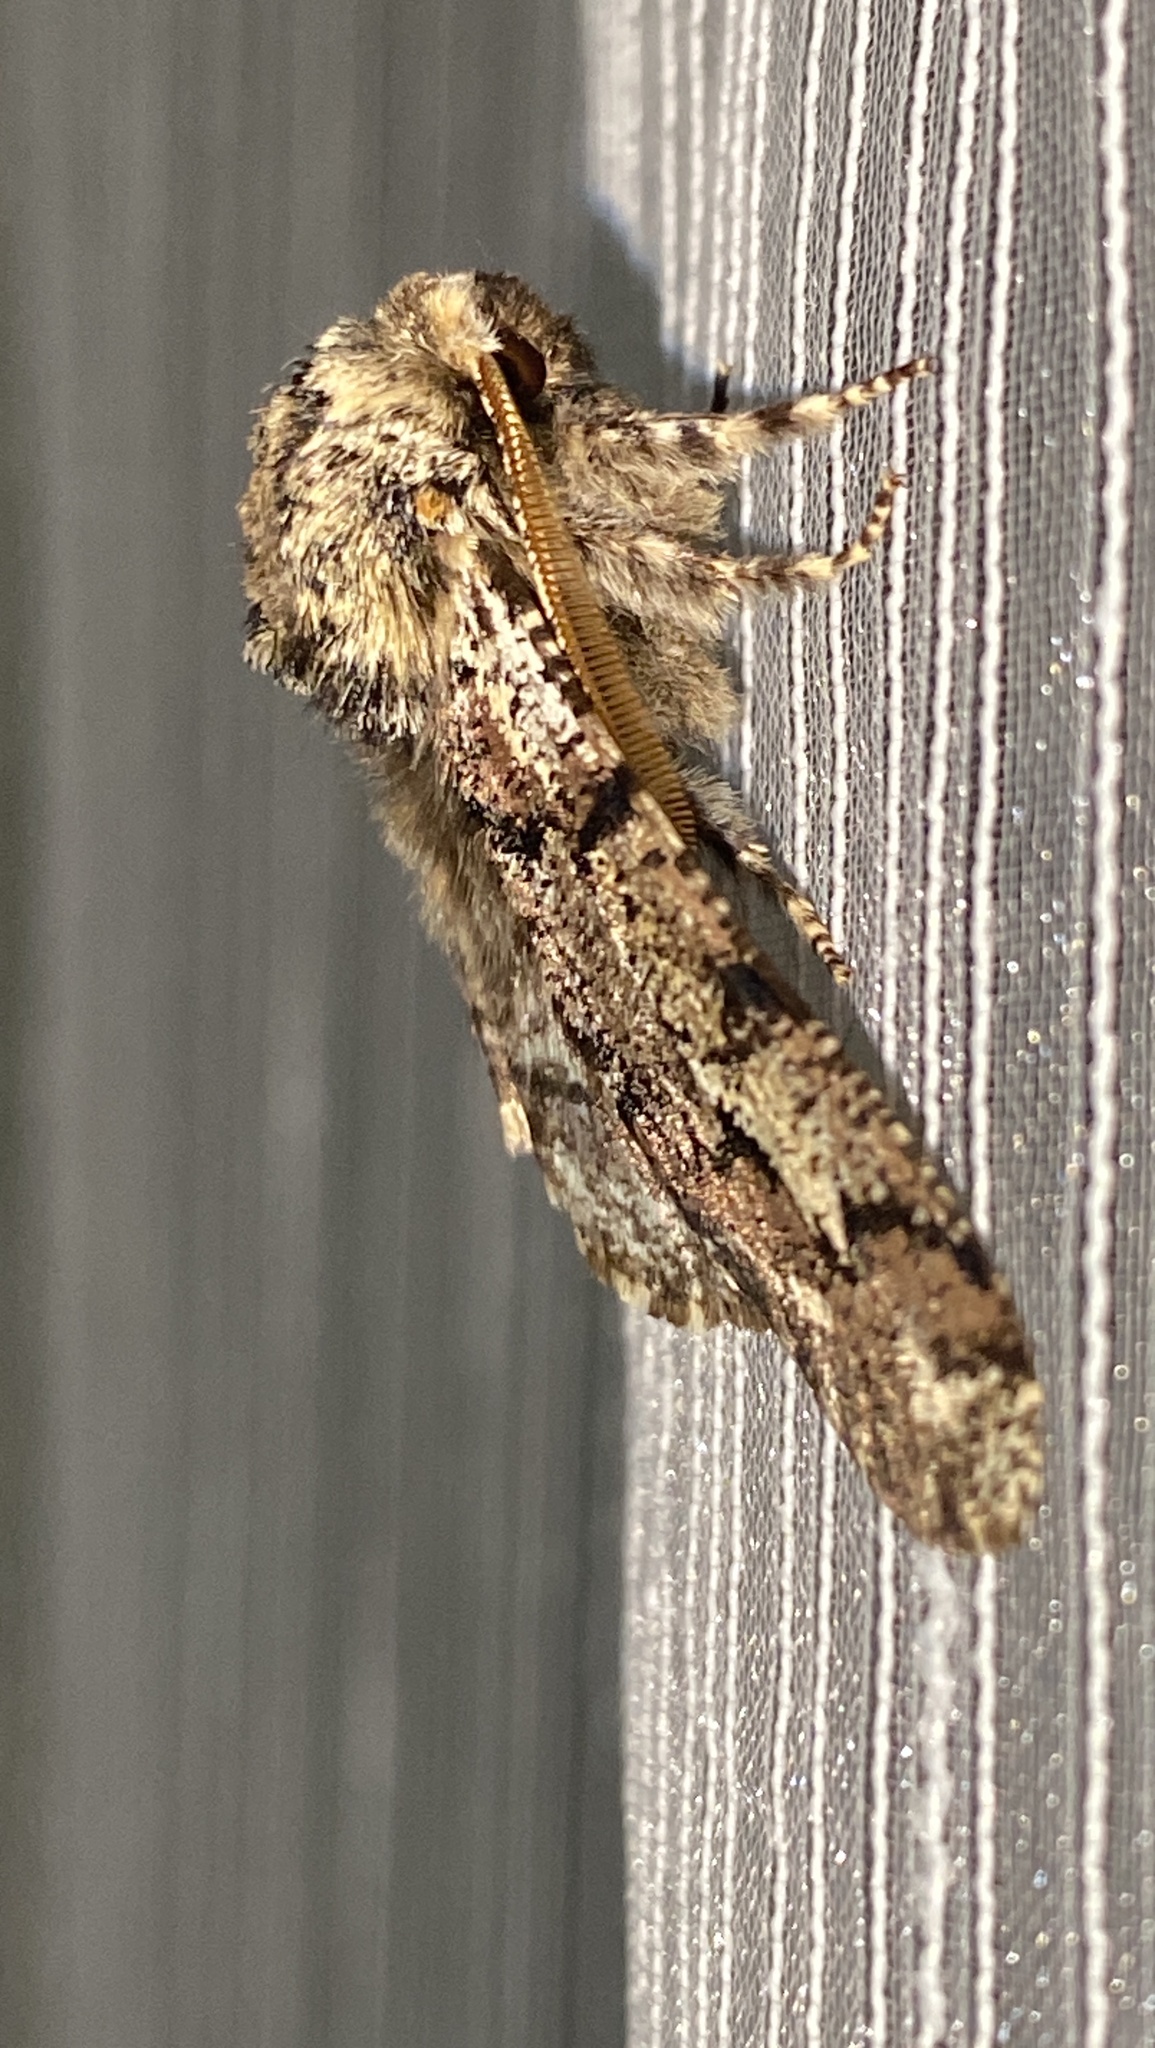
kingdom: Animalia
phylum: Arthropoda
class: Insecta
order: Lepidoptera
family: Geometridae
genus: Biston
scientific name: Biston strataria
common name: Oak beauty
